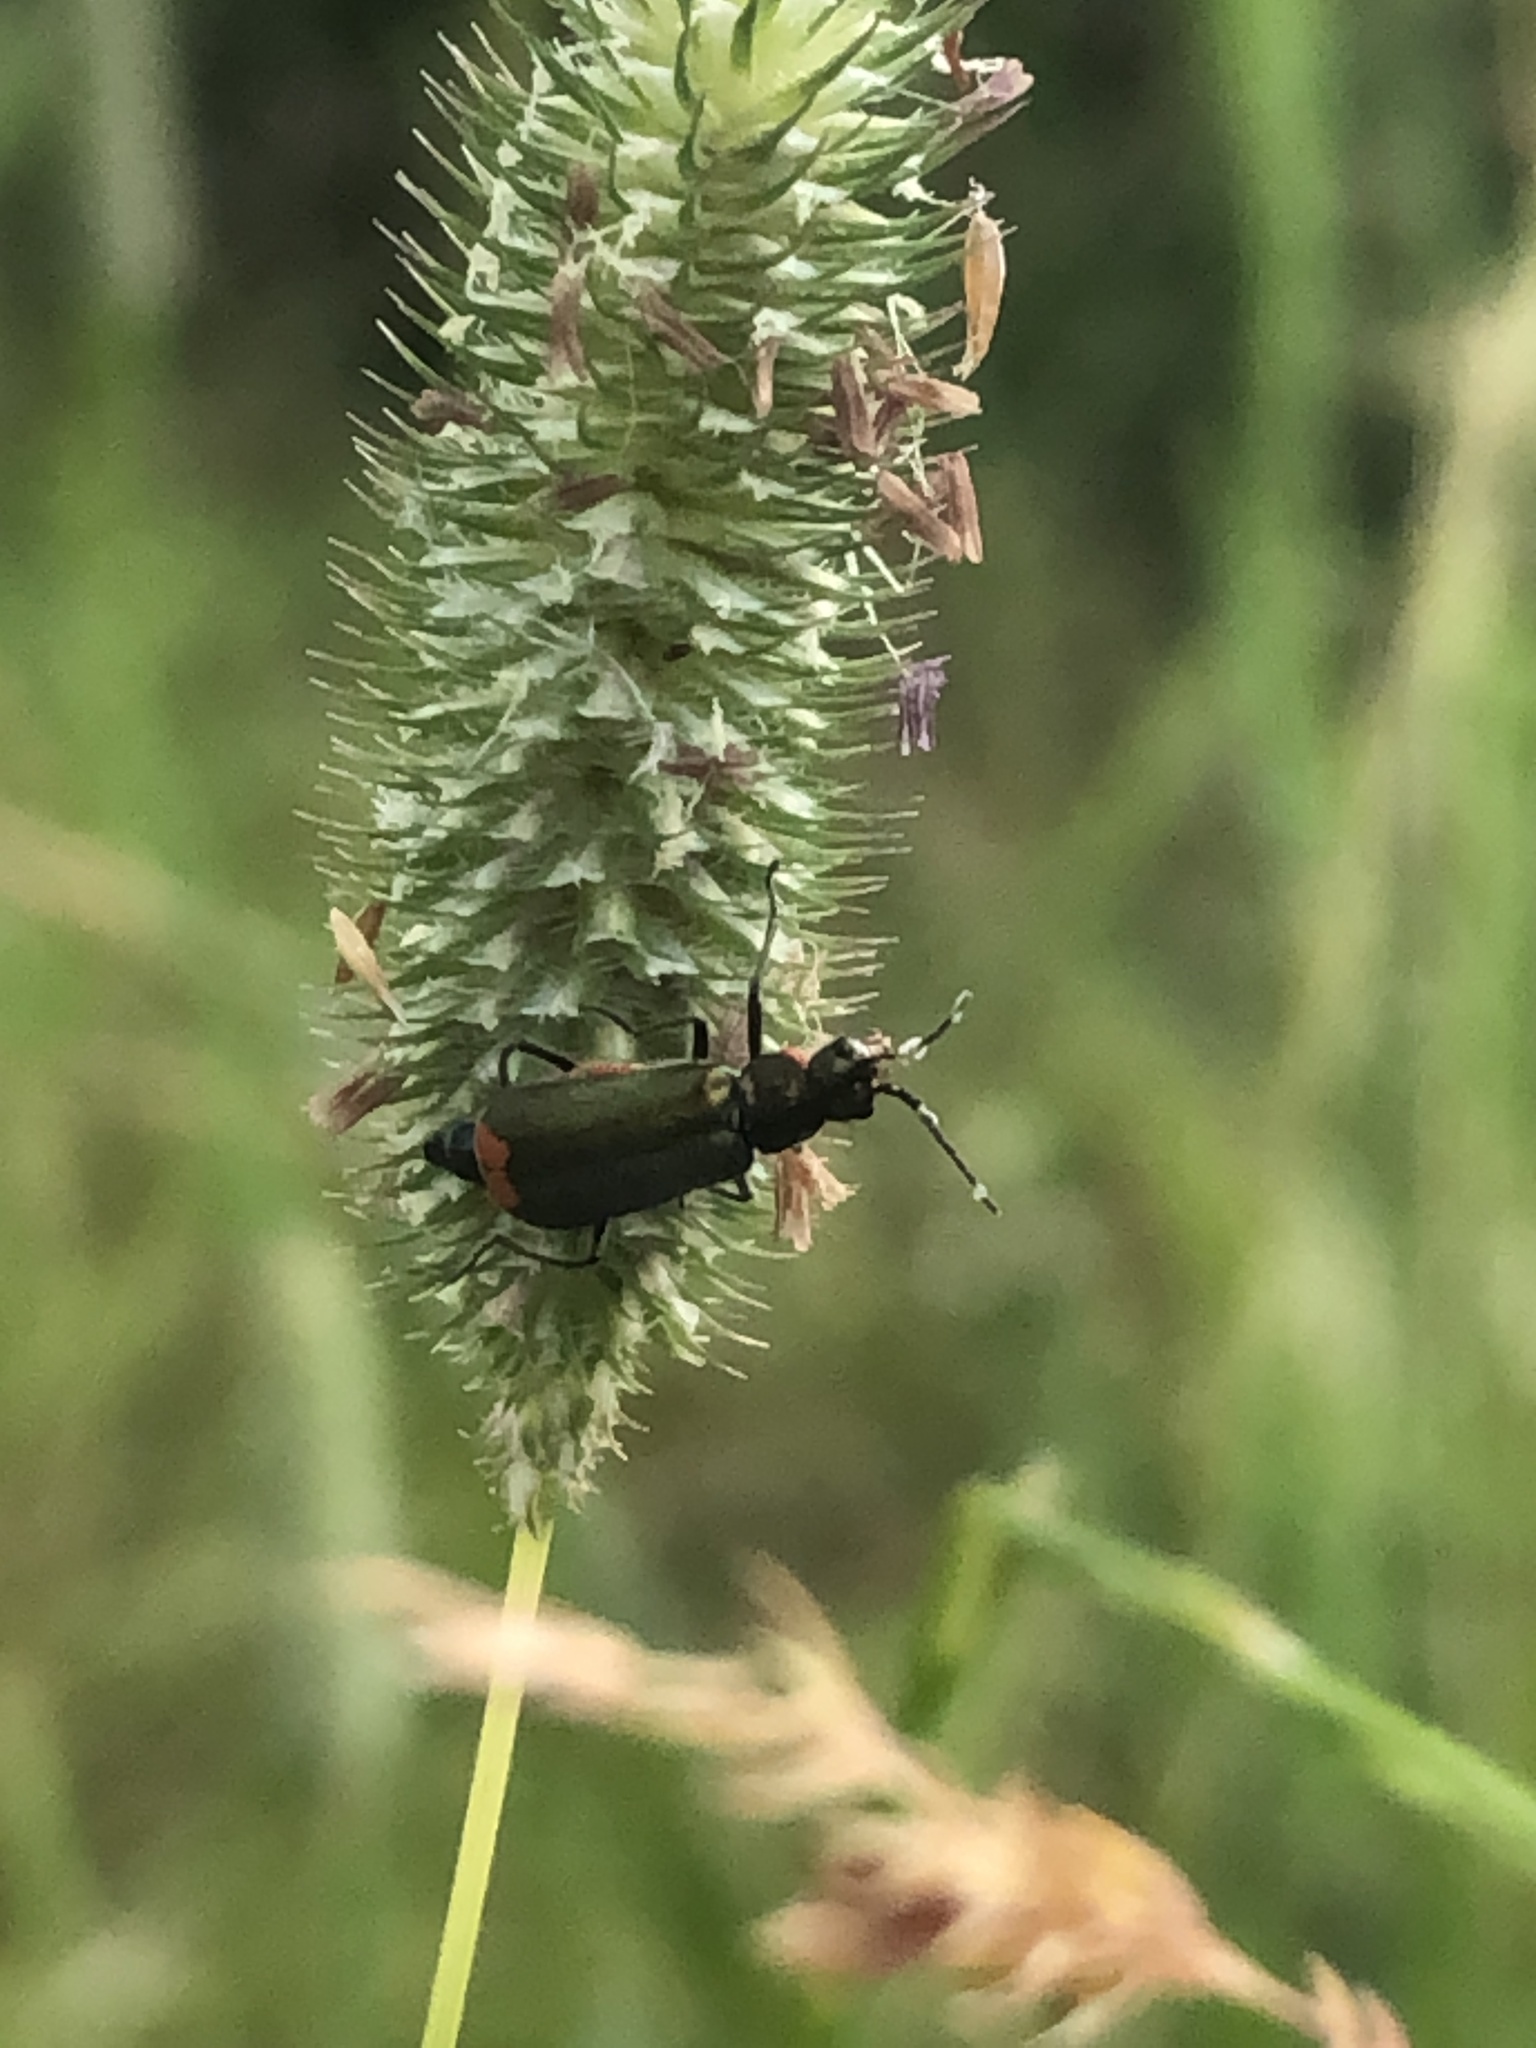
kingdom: Animalia
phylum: Arthropoda
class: Insecta
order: Coleoptera
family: Melyridae
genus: Malachius
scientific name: Malachius bipustulatus
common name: Malachite beetle
